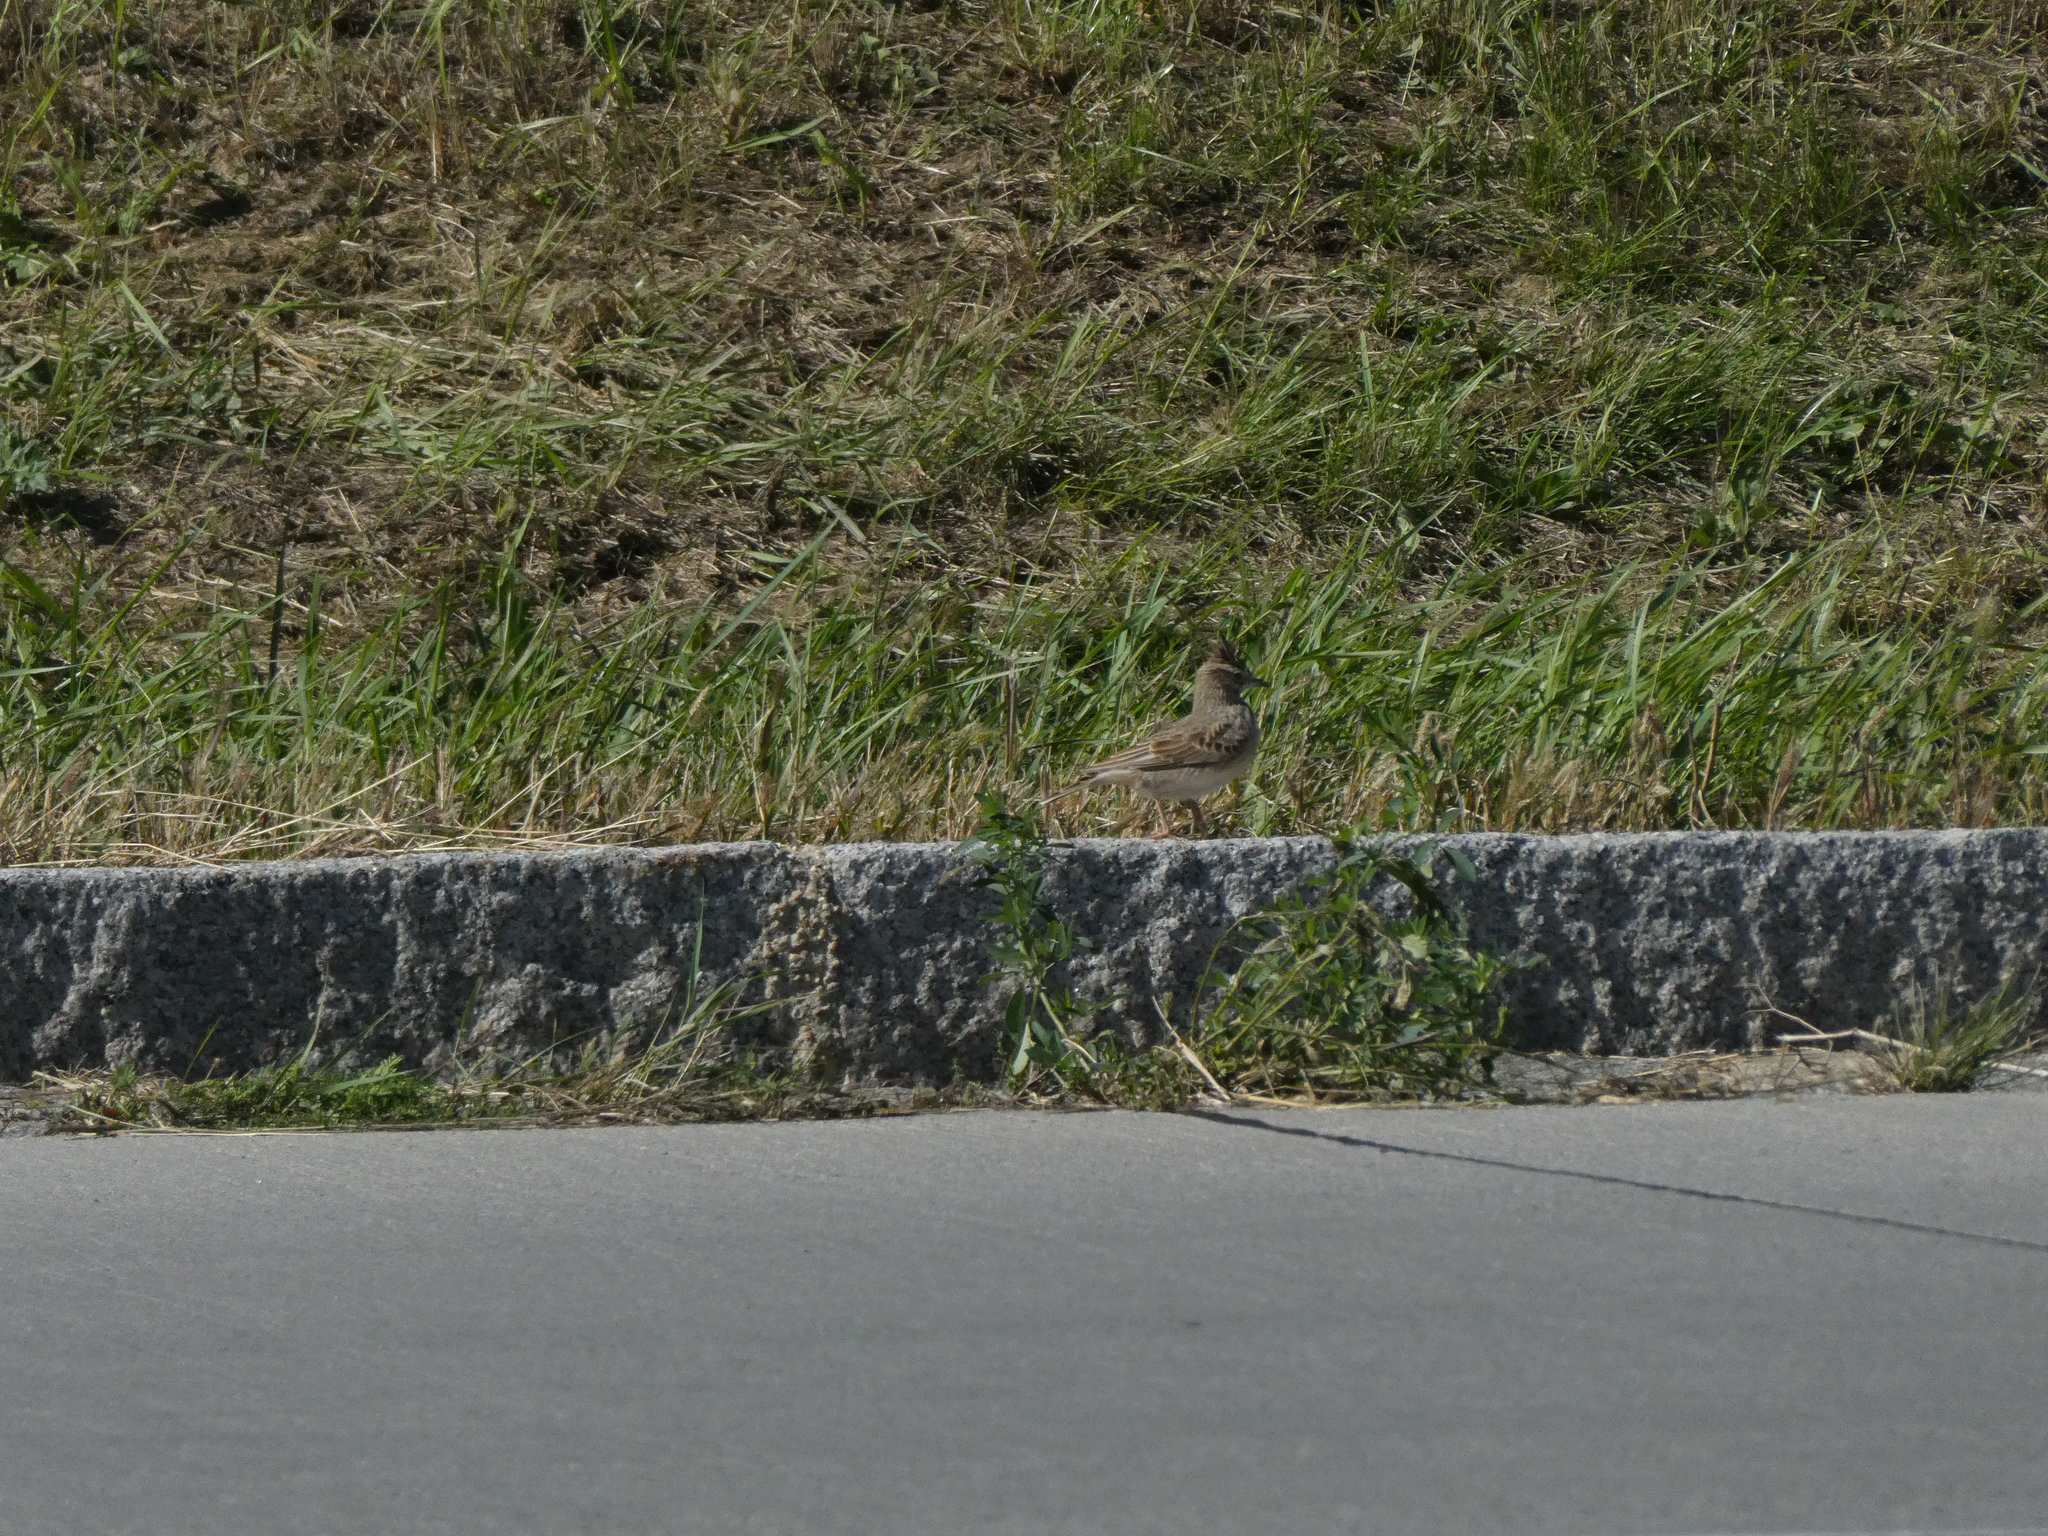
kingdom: Animalia
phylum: Chordata
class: Aves
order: Passeriformes
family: Alaudidae
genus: Galerida
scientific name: Galerida cristata
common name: Crested lark
